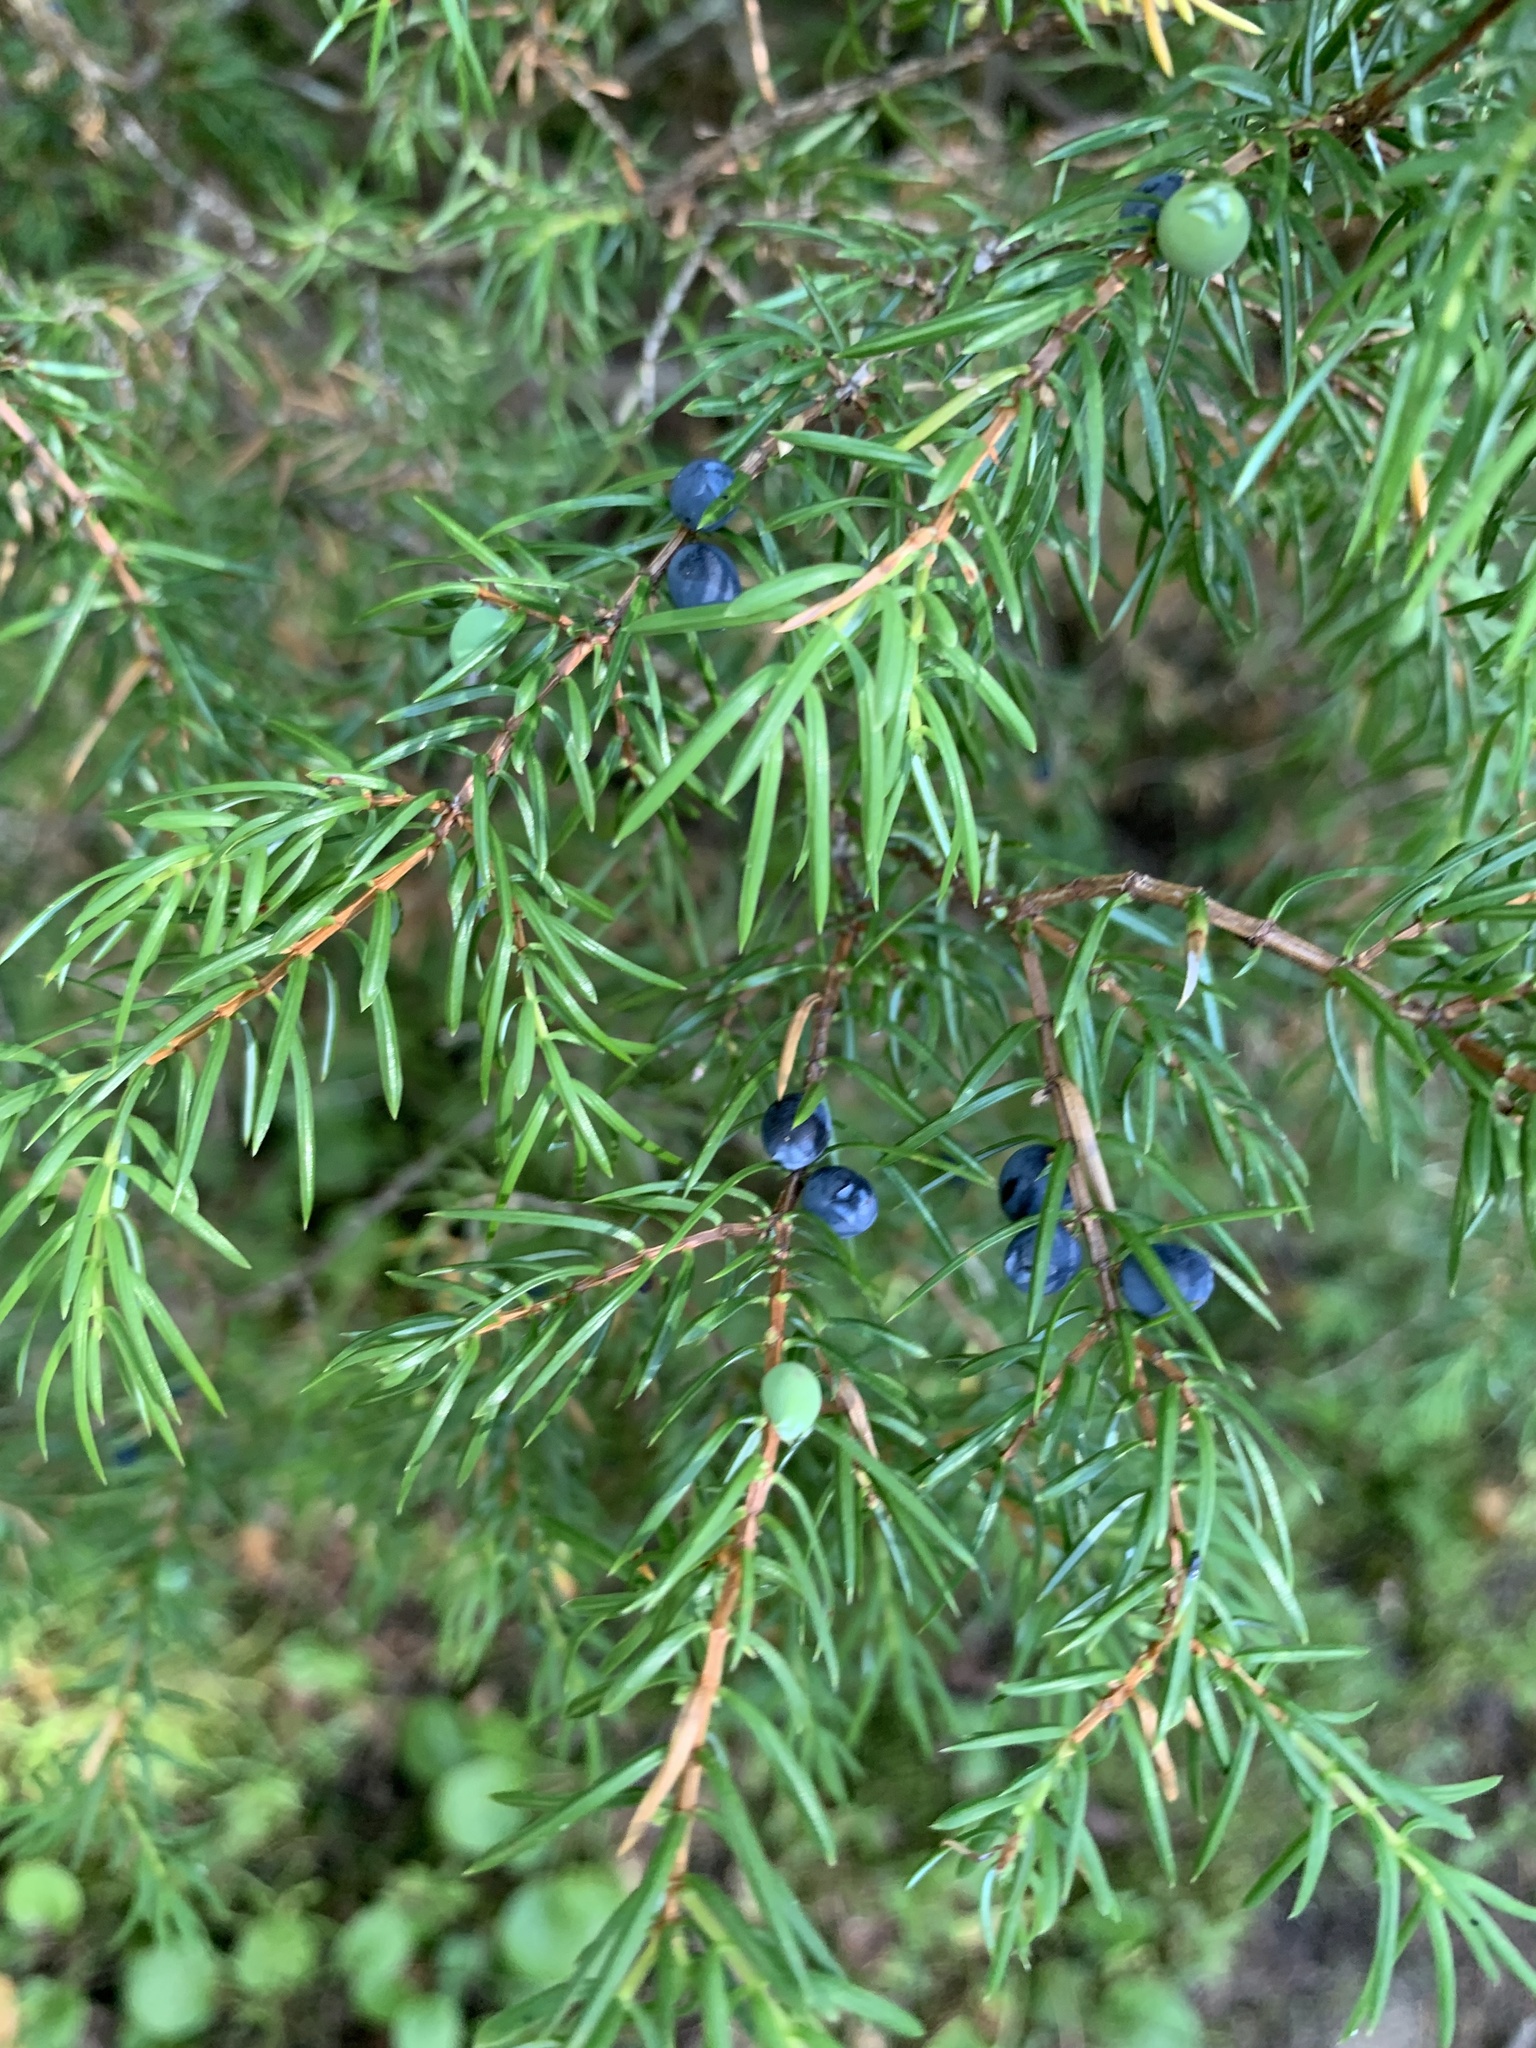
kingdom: Plantae
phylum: Tracheophyta
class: Pinopsida
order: Pinales
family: Cupressaceae
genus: Juniperus
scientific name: Juniperus communis
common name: Common juniper
